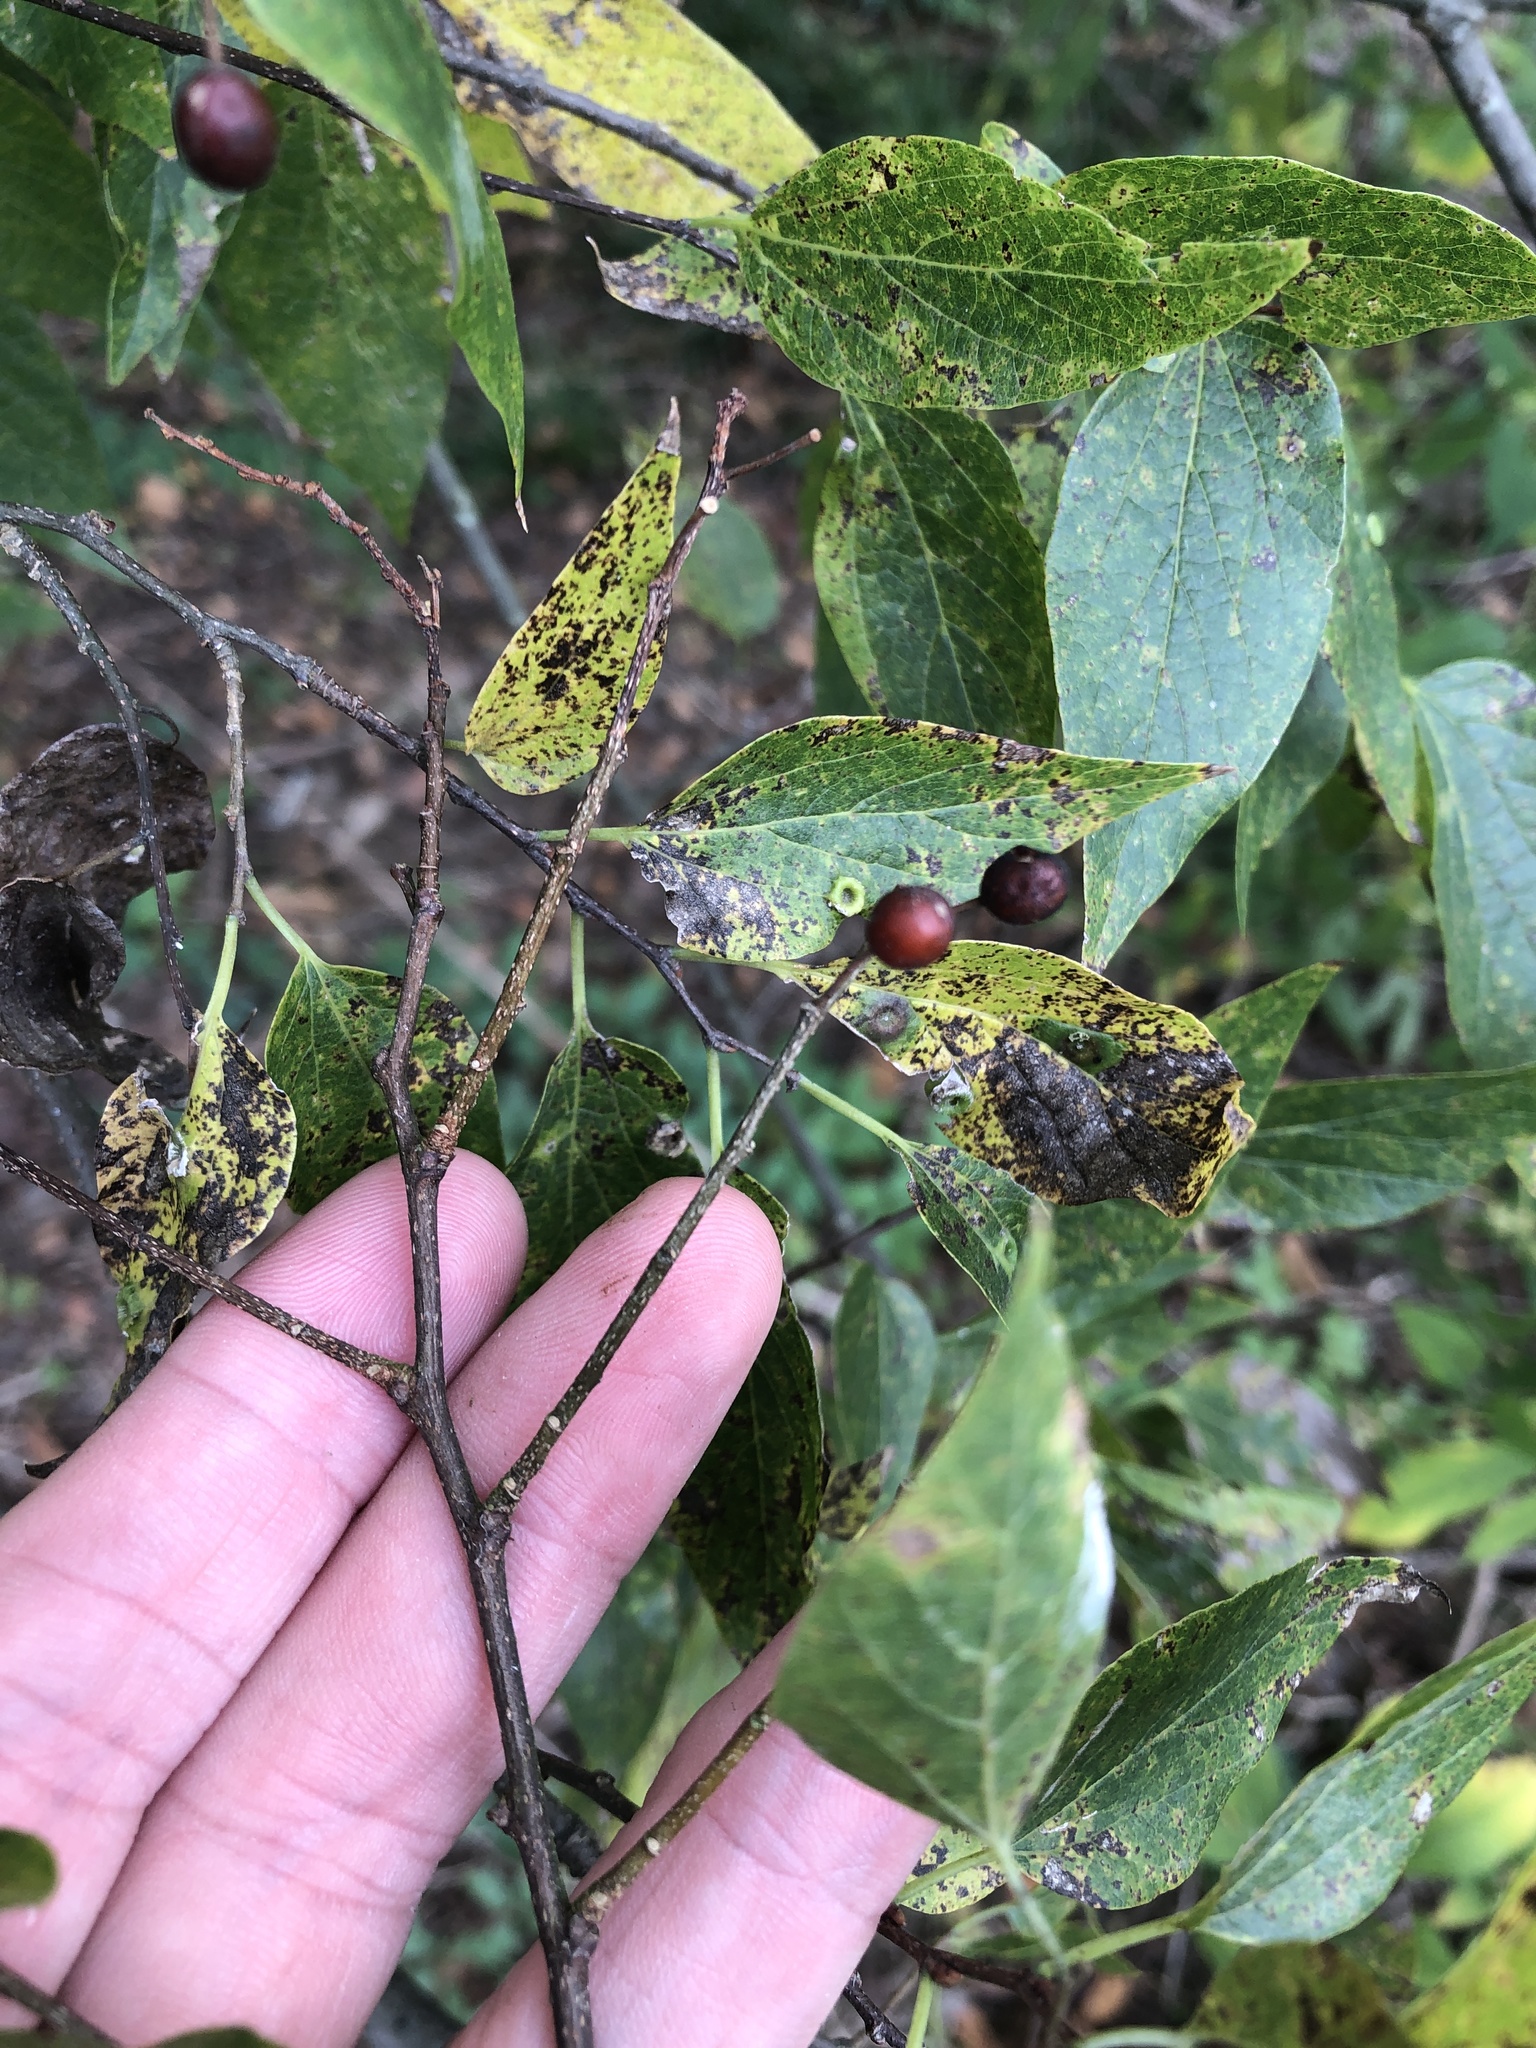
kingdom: Plantae
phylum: Tracheophyta
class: Magnoliopsida
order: Rosales
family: Cannabaceae
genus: Celtis
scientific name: Celtis laevigata
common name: Sugarberry
